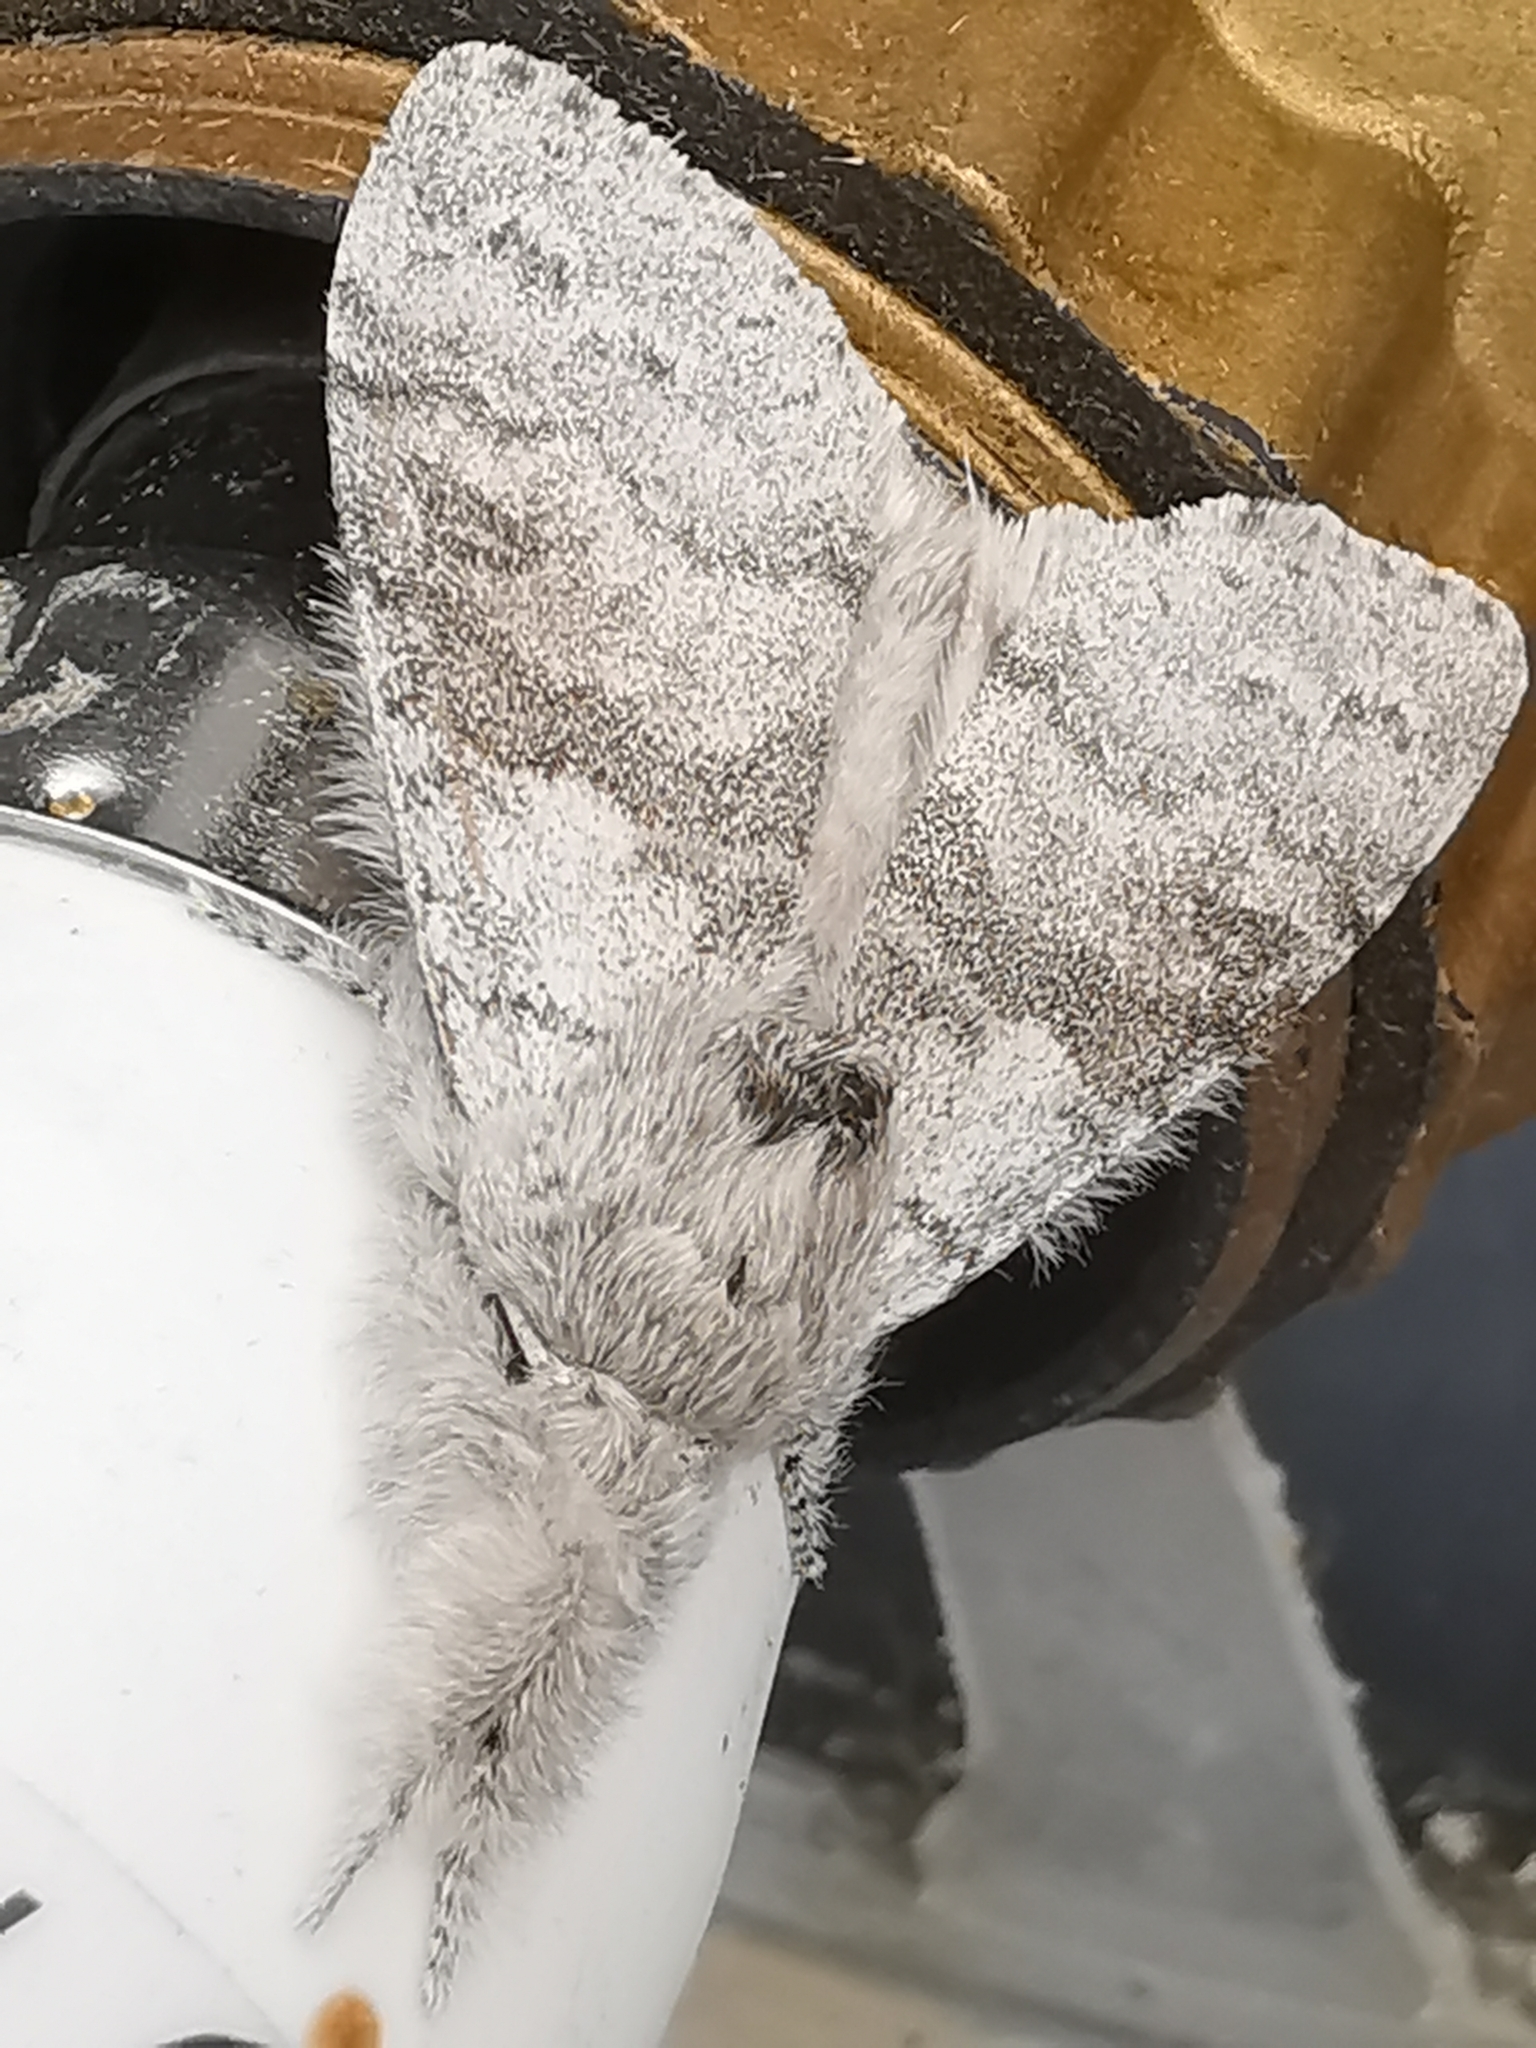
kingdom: Animalia
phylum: Arthropoda
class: Insecta
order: Lepidoptera
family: Erebidae
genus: Calliteara
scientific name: Calliteara pudibunda
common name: Pale tussock
